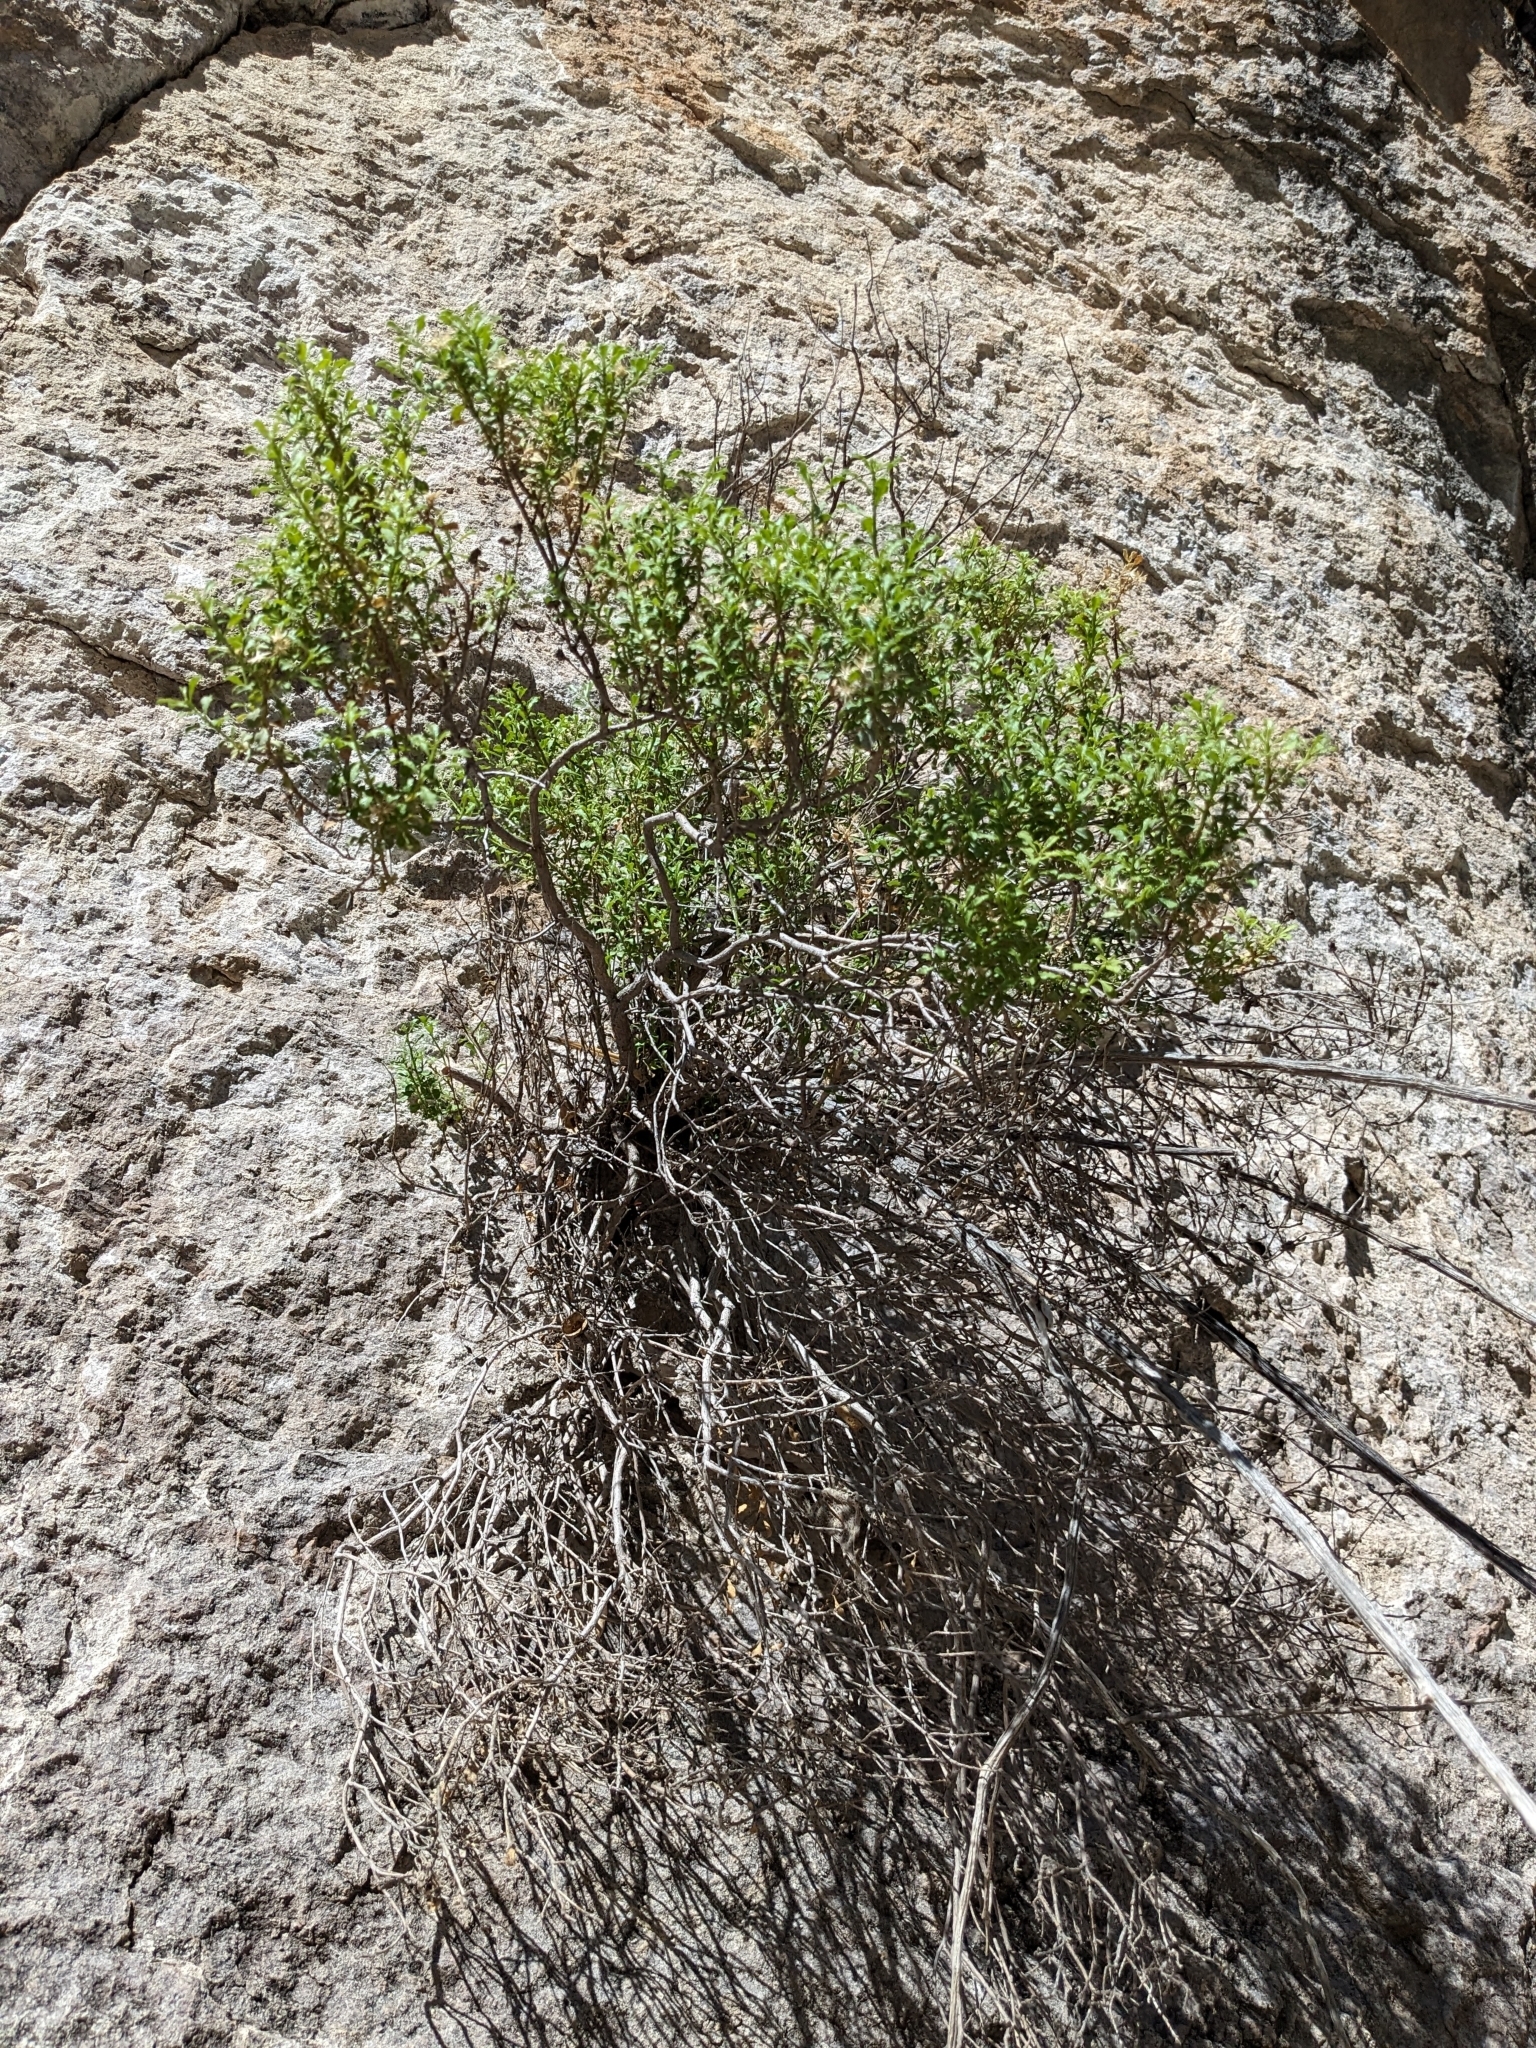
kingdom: Plantae
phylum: Tracheophyta
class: Magnoliopsida
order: Asterales
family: Asteraceae
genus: Ericameria
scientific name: Ericameria cuneata
